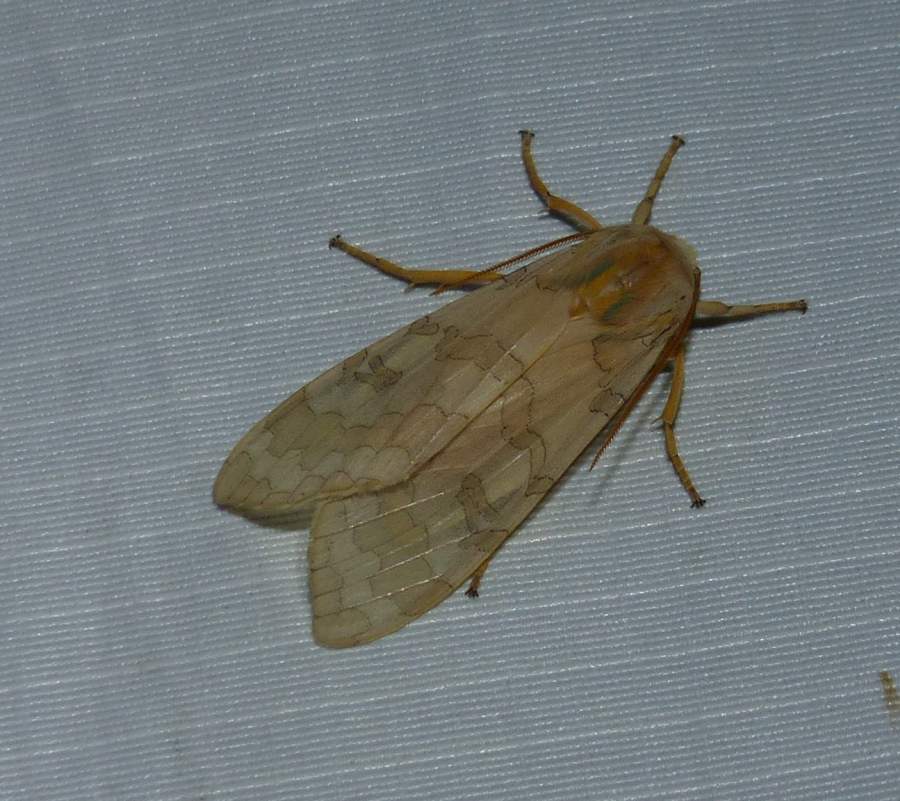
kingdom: Animalia
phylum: Arthropoda
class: Insecta
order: Lepidoptera
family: Erebidae
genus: Halysidota
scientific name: Halysidota tessellaris
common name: Banded tussock moth
